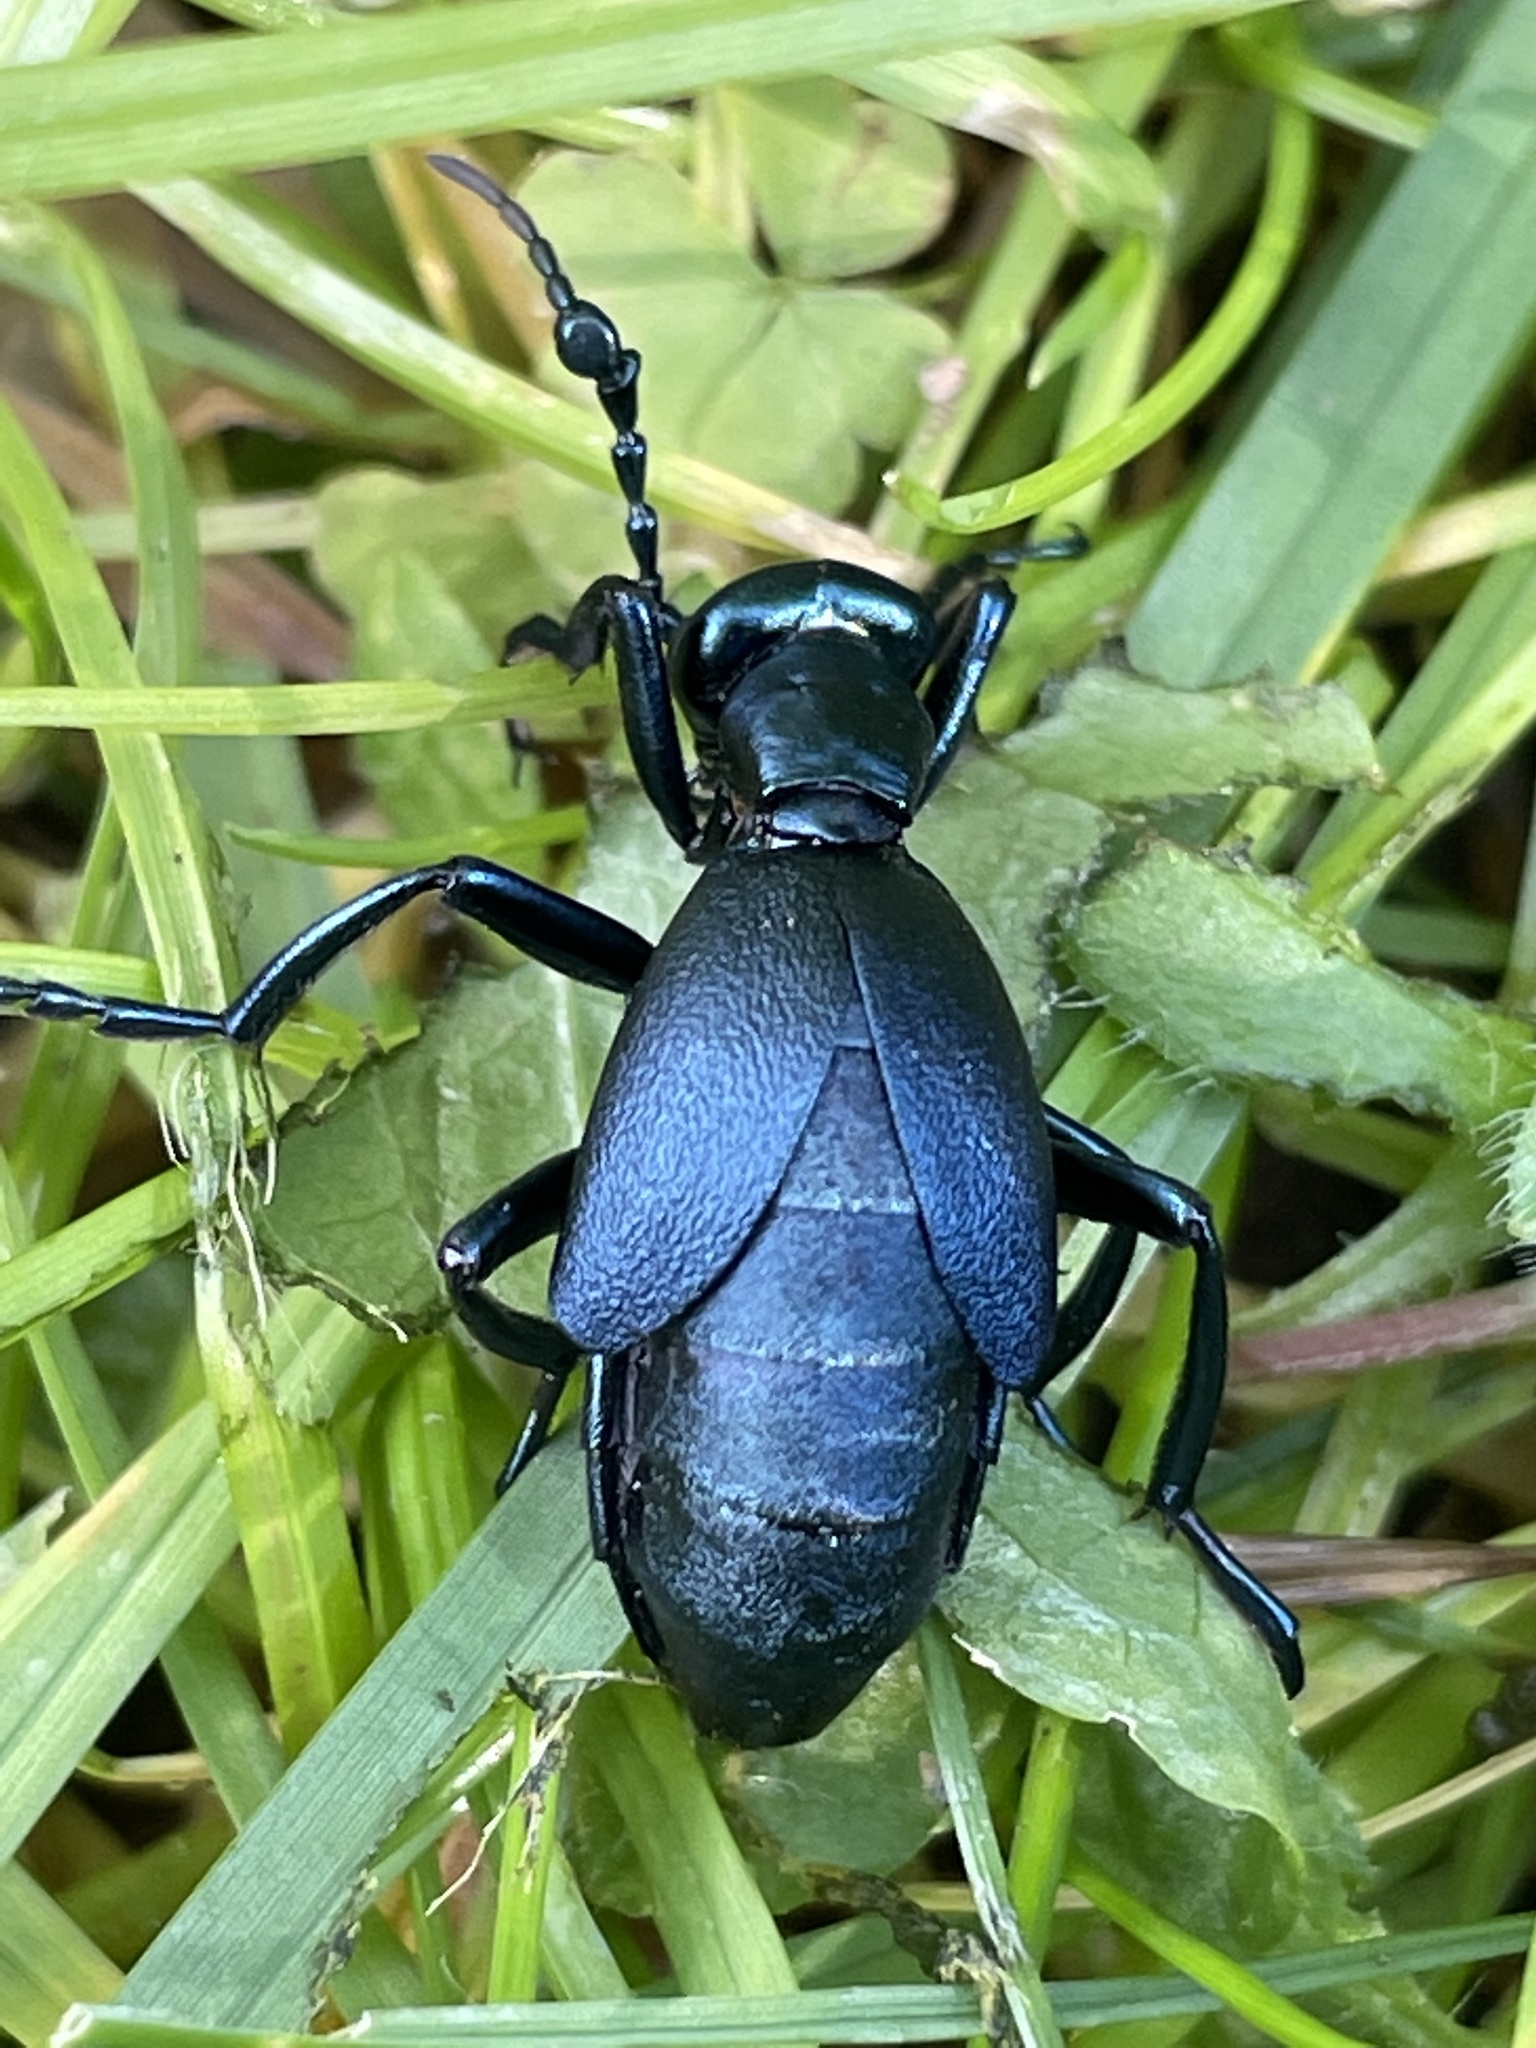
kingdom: Animalia
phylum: Arthropoda
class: Insecta
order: Coleoptera
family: Meloidae
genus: Meloe
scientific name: Meloe impressus
